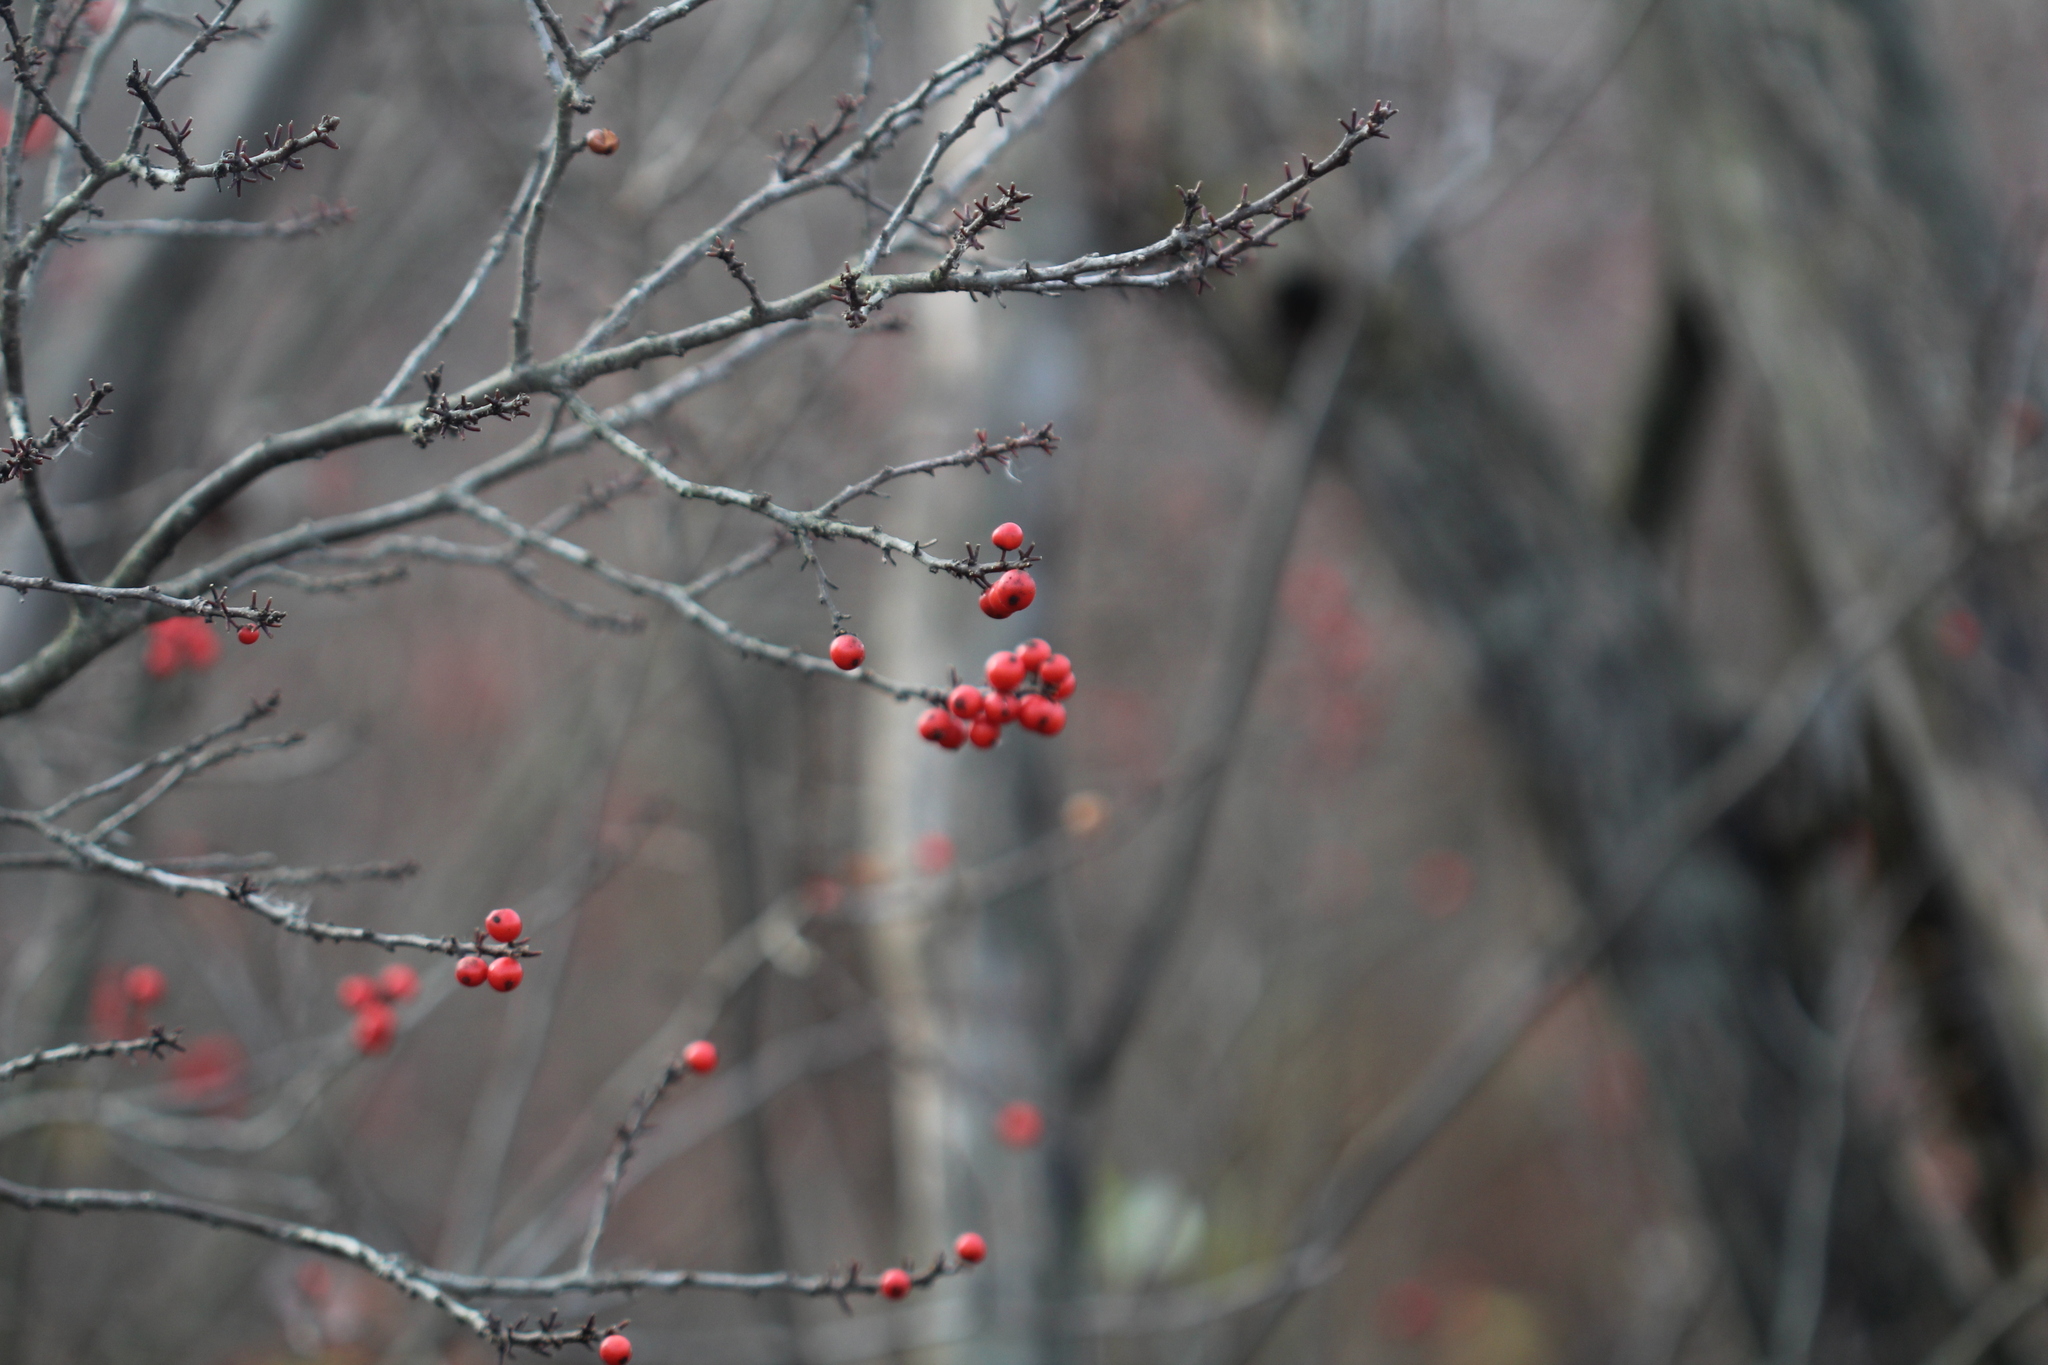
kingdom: Plantae
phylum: Tracheophyta
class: Magnoliopsida
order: Aquifoliales
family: Aquifoliaceae
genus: Ilex
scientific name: Ilex verticillata
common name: Virginia winterberry
